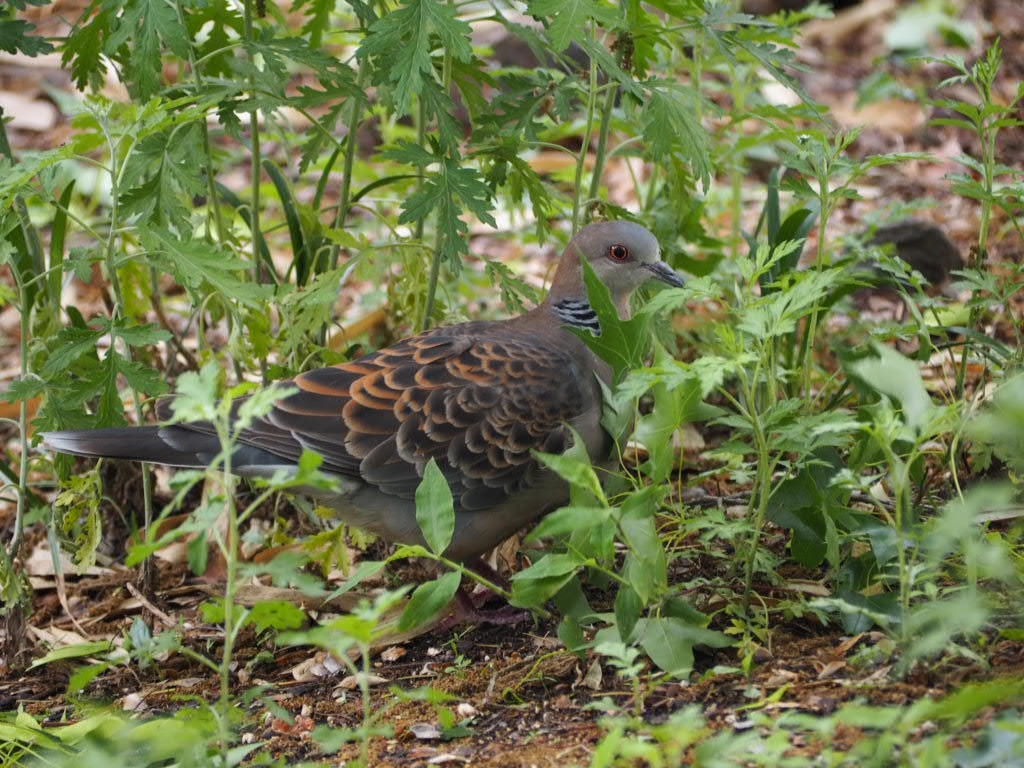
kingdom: Animalia
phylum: Chordata
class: Aves
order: Columbiformes
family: Columbidae
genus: Streptopelia
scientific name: Streptopelia orientalis
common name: Oriental turtle dove
